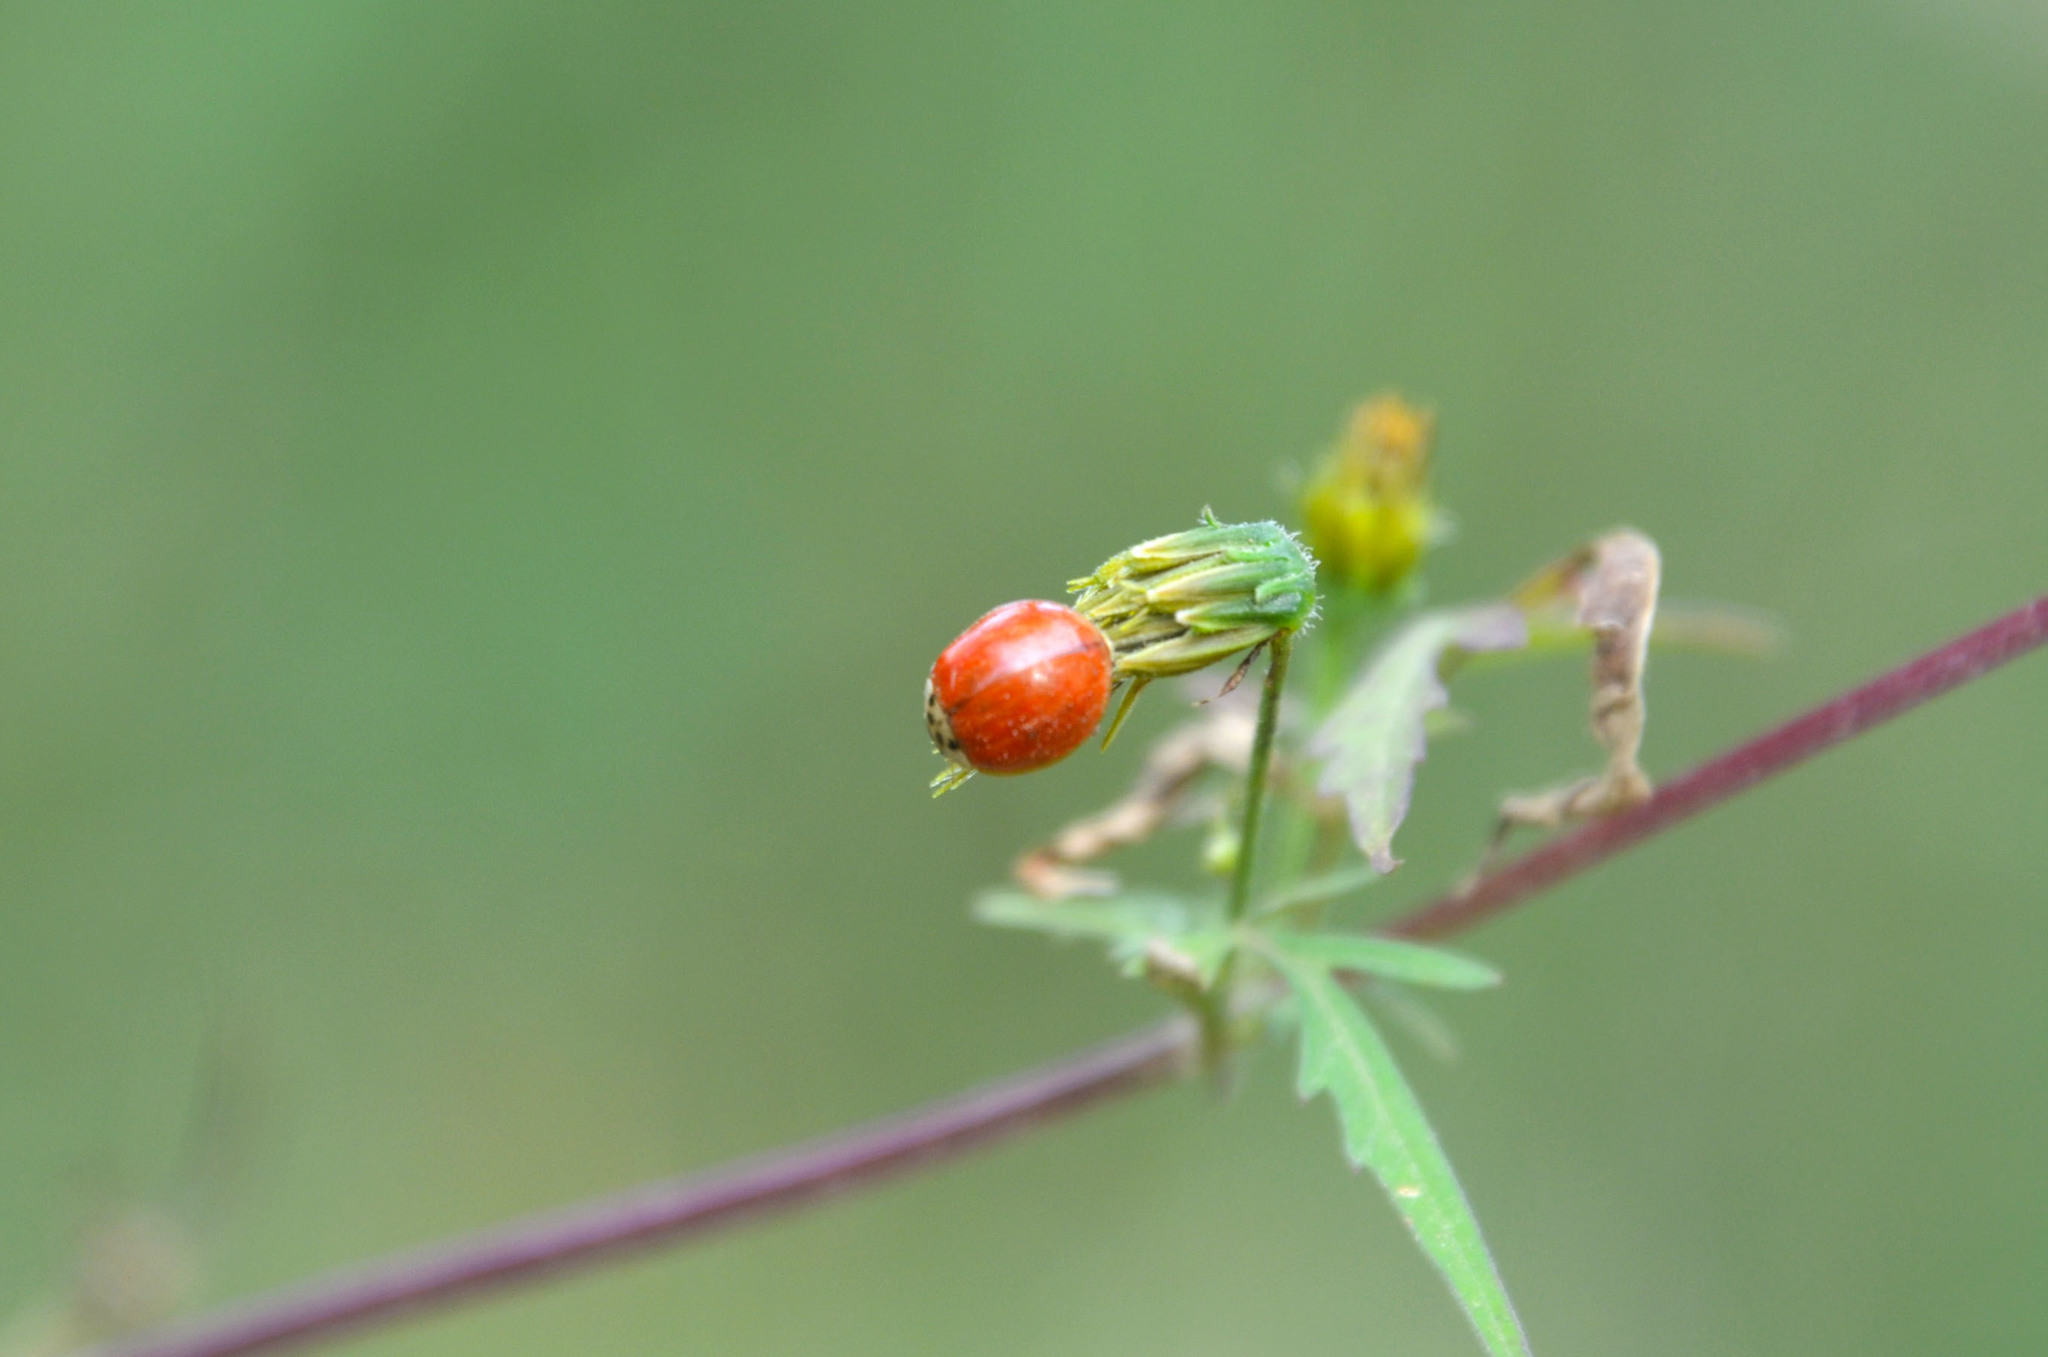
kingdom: Animalia
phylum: Arthropoda
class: Insecta
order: Coleoptera
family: Coccinellidae
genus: Harmonia
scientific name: Harmonia axyridis
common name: Harlequin ladybird
